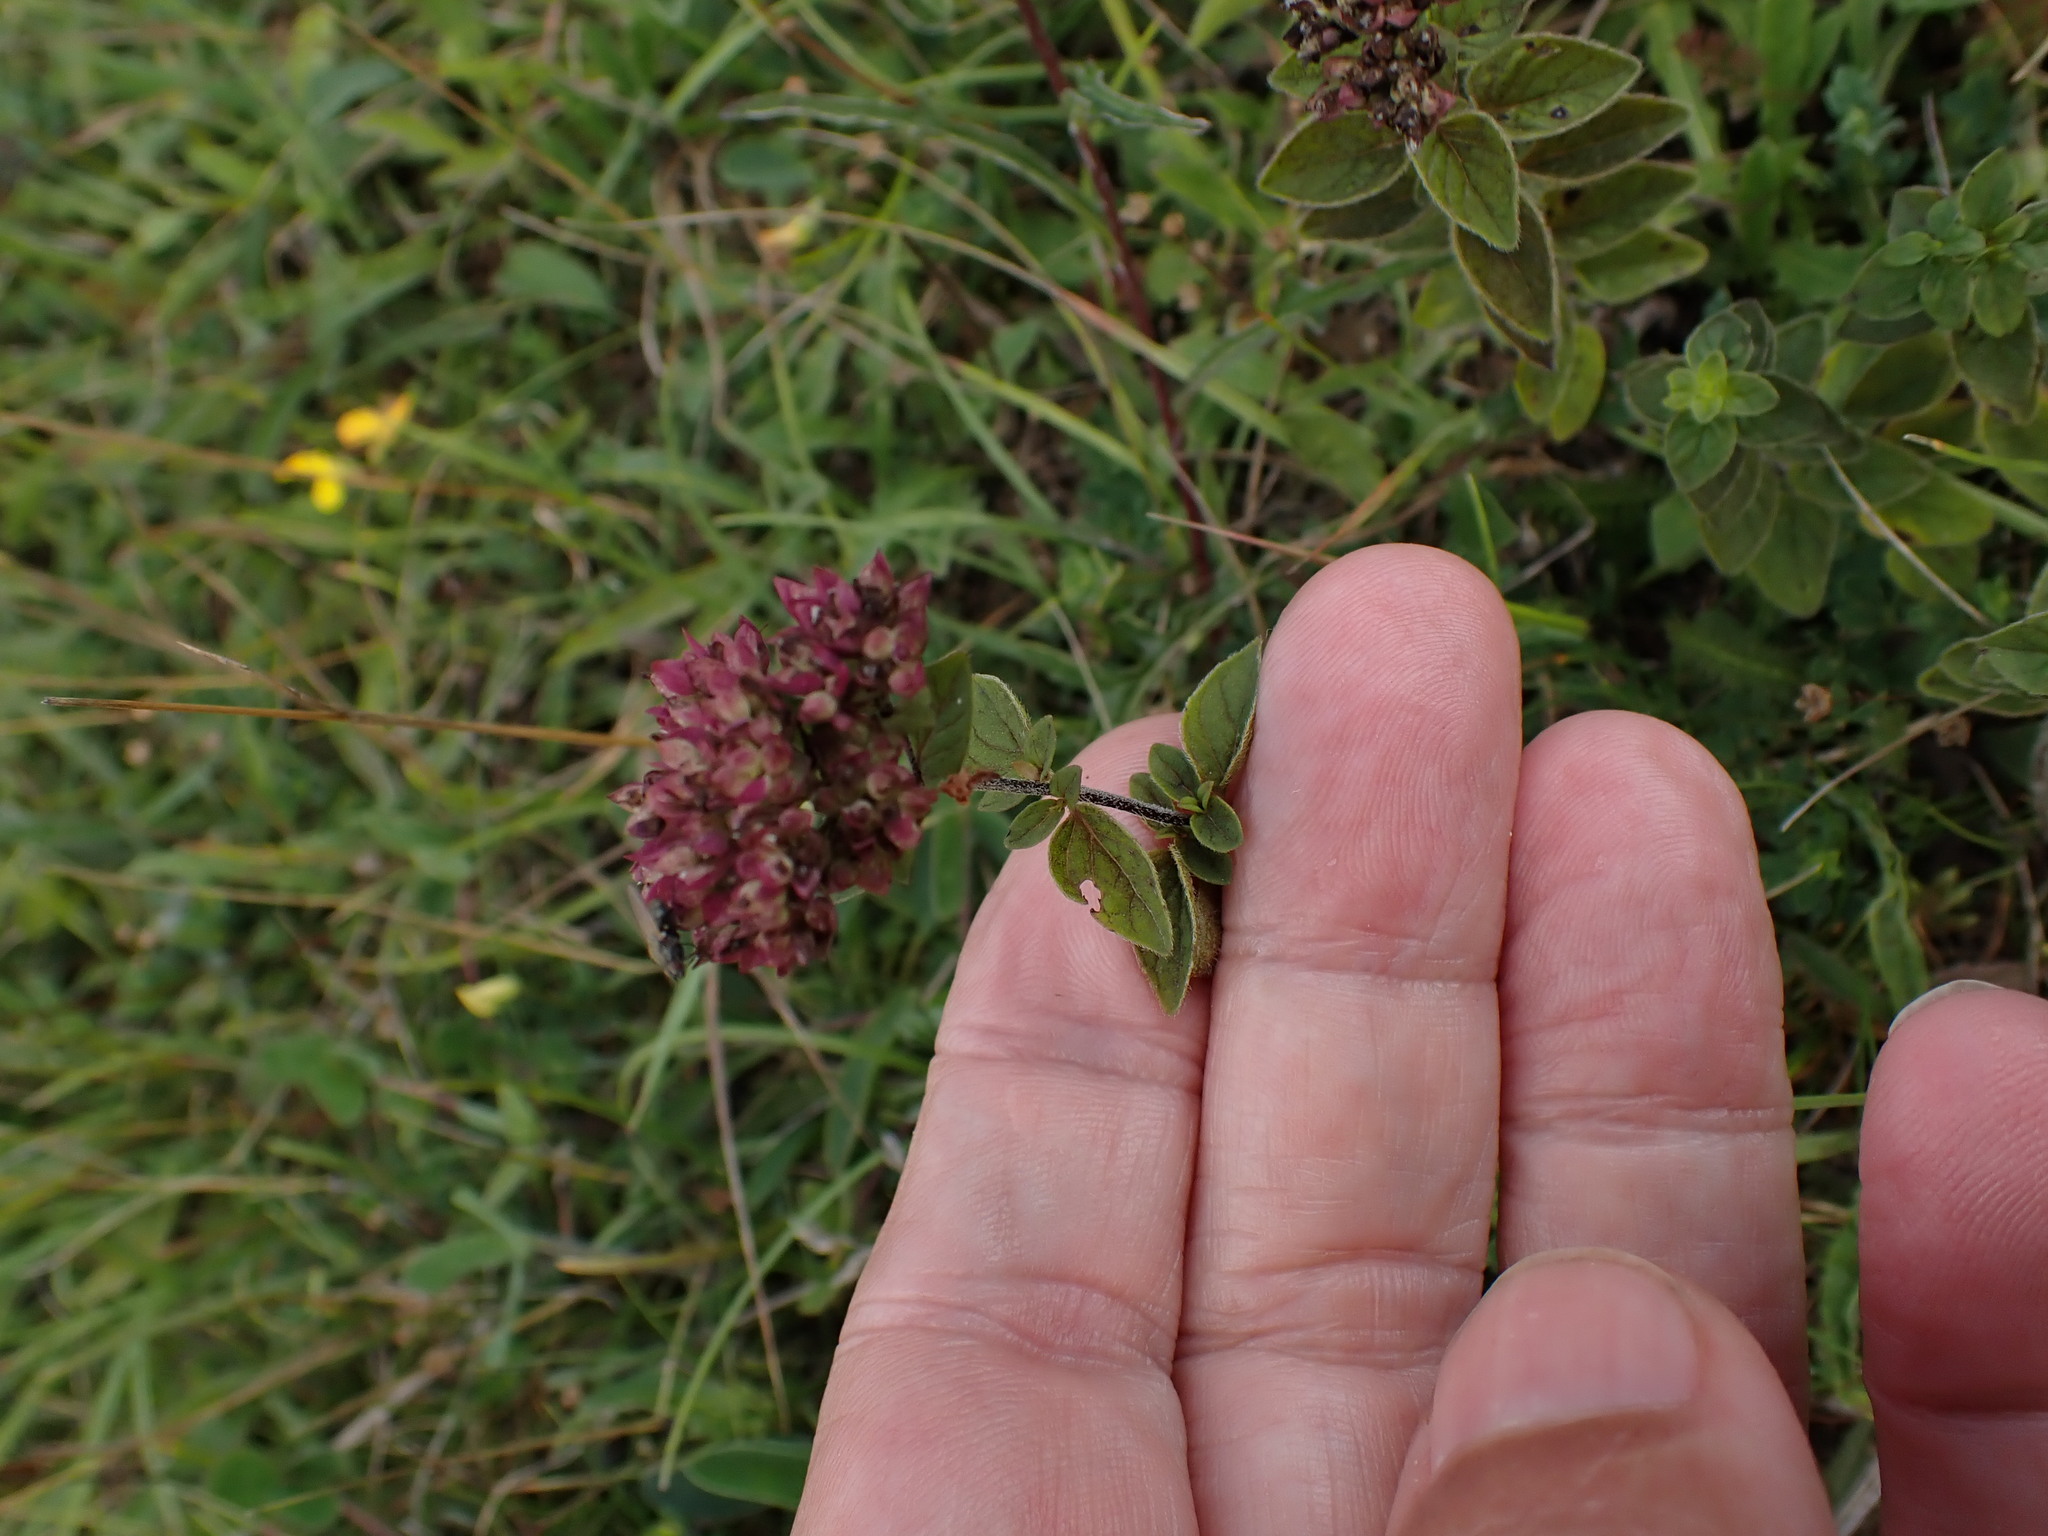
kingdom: Plantae
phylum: Tracheophyta
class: Magnoliopsida
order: Lamiales
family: Lamiaceae
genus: Origanum
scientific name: Origanum vulgare
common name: Wild marjoram
